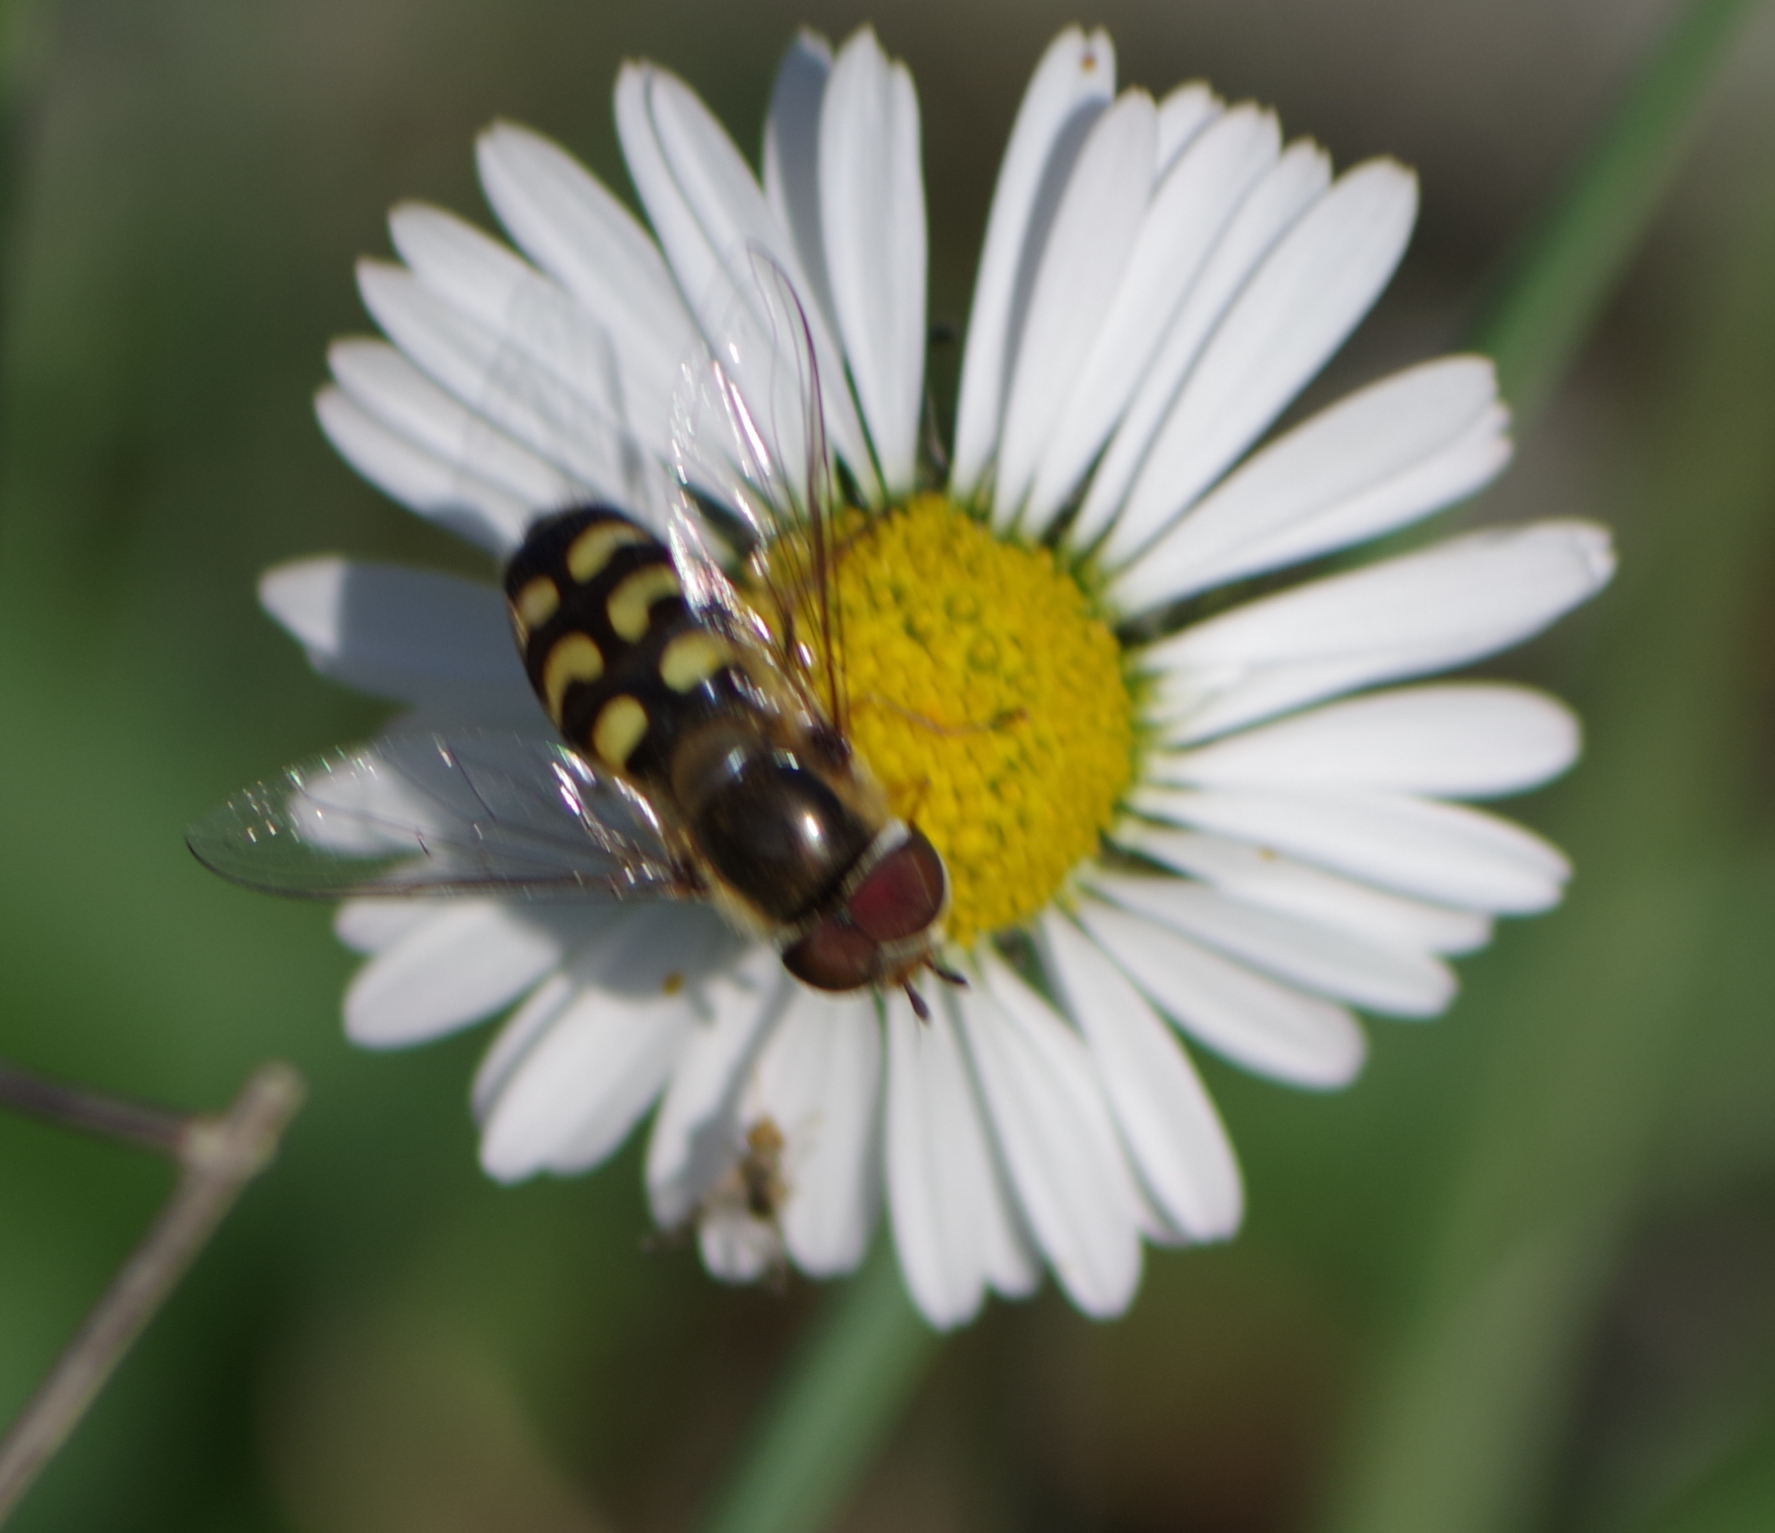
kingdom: Animalia
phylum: Arthropoda
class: Insecta
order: Diptera
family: Syrphidae
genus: Scaeva
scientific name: Scaeva selenitica
